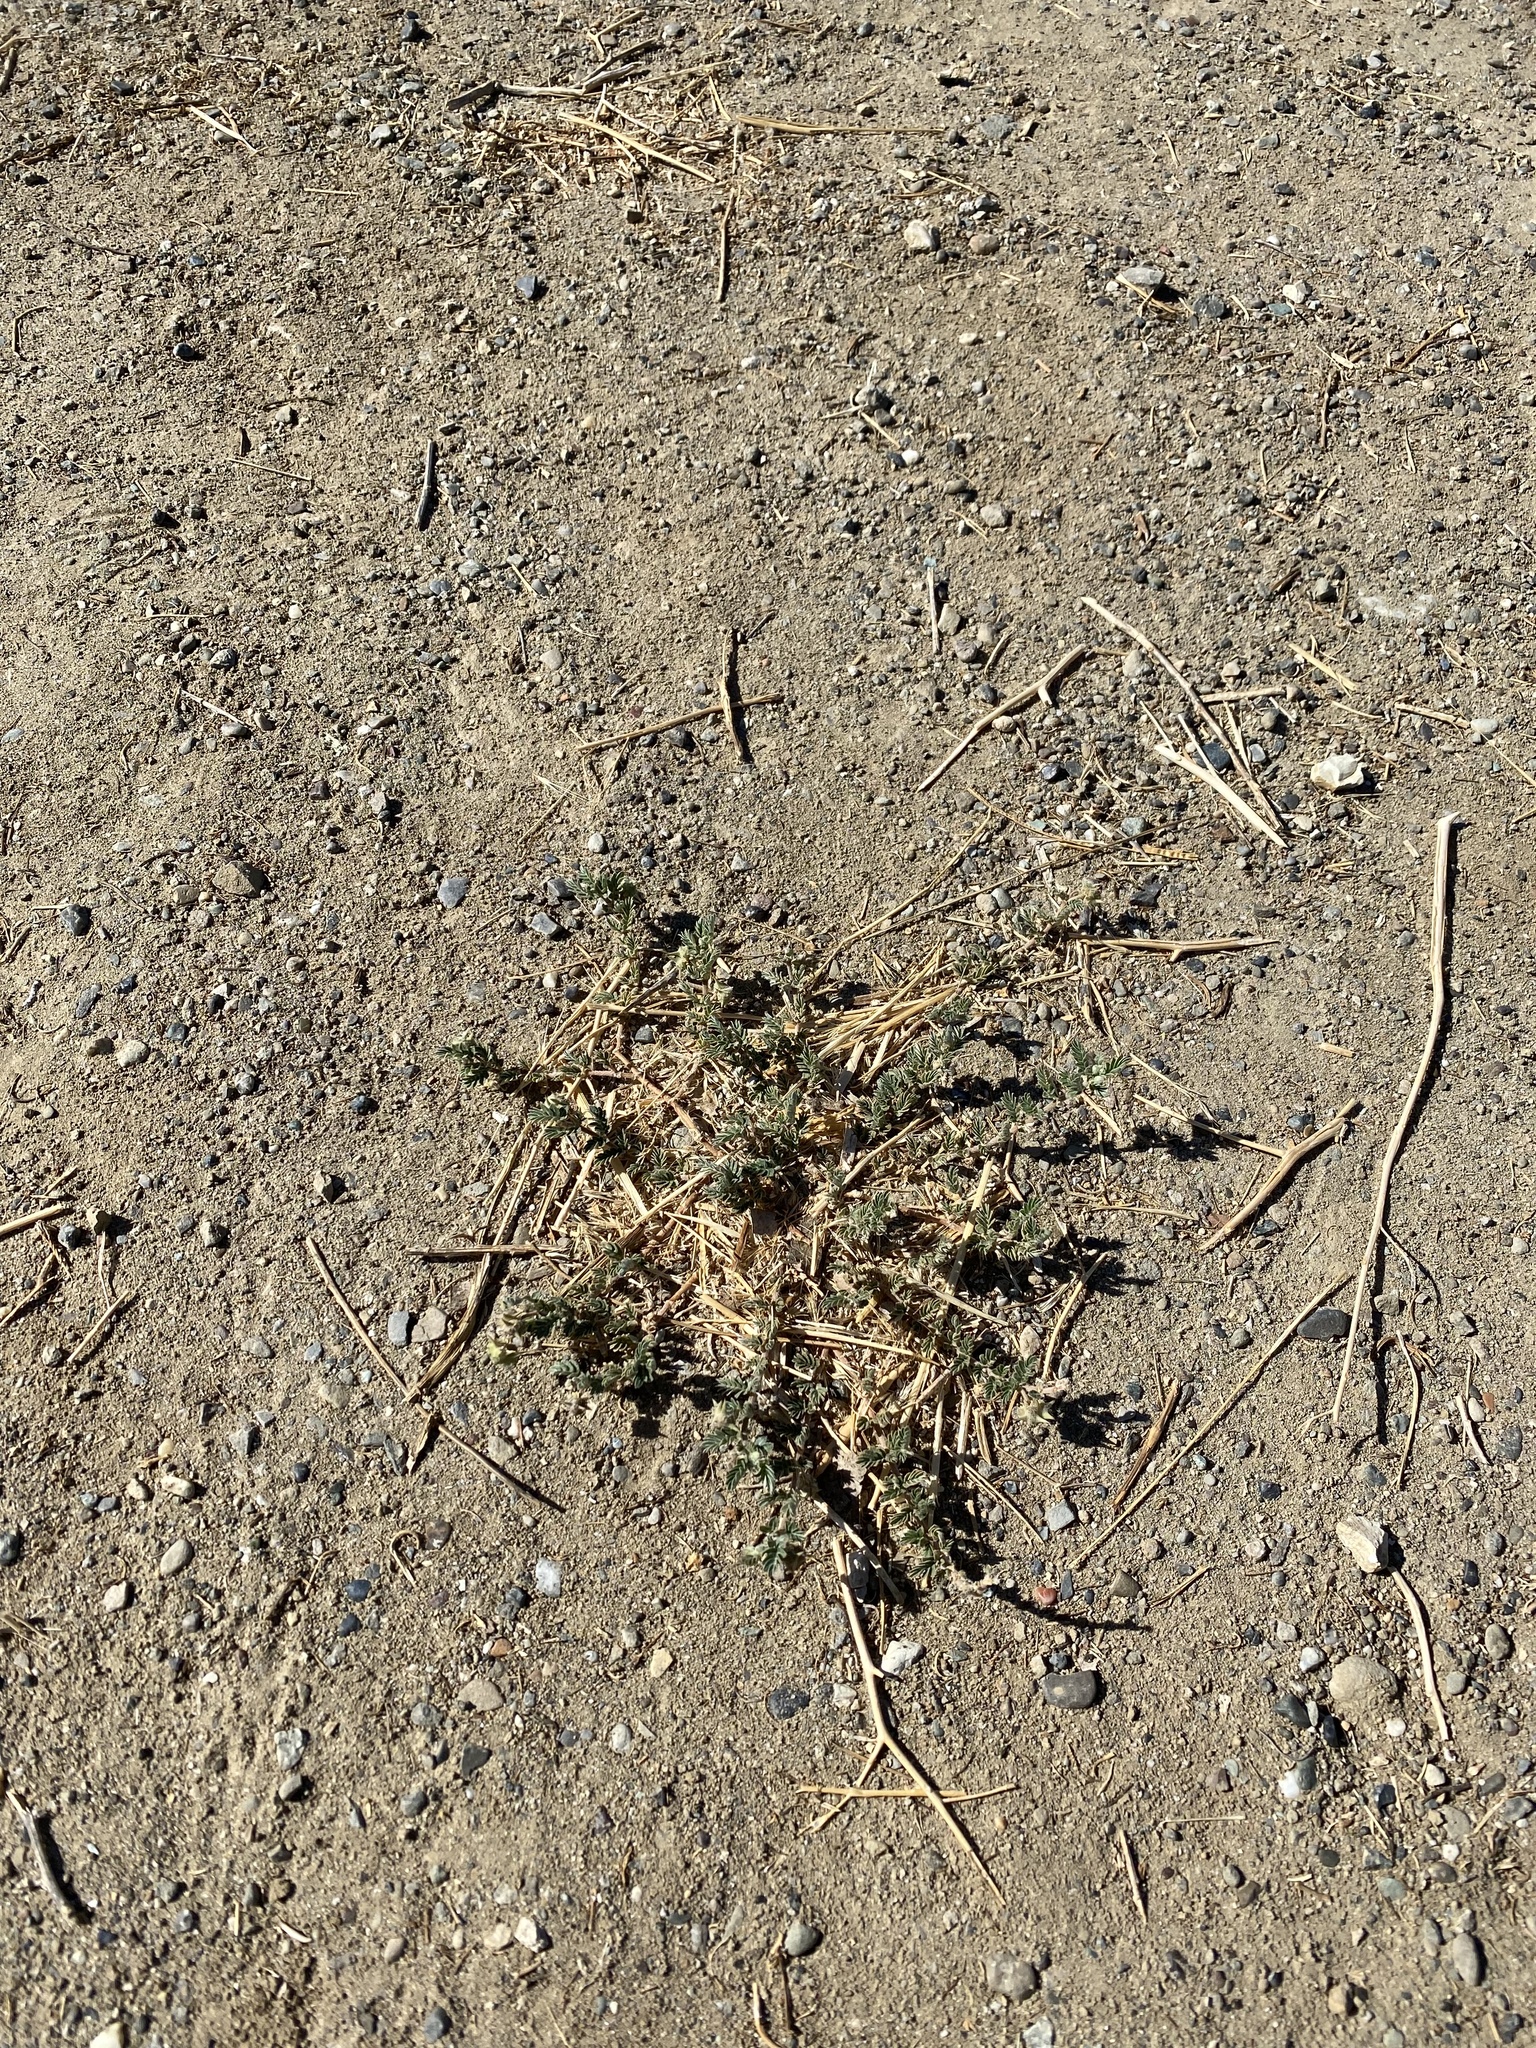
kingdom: Plantae
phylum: Tracheophyta
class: Magnoliopsida
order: Zygophyllales
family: Zygophyllaceae
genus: Tribulus
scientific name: Tribulus terrestris
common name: Puncturevine
